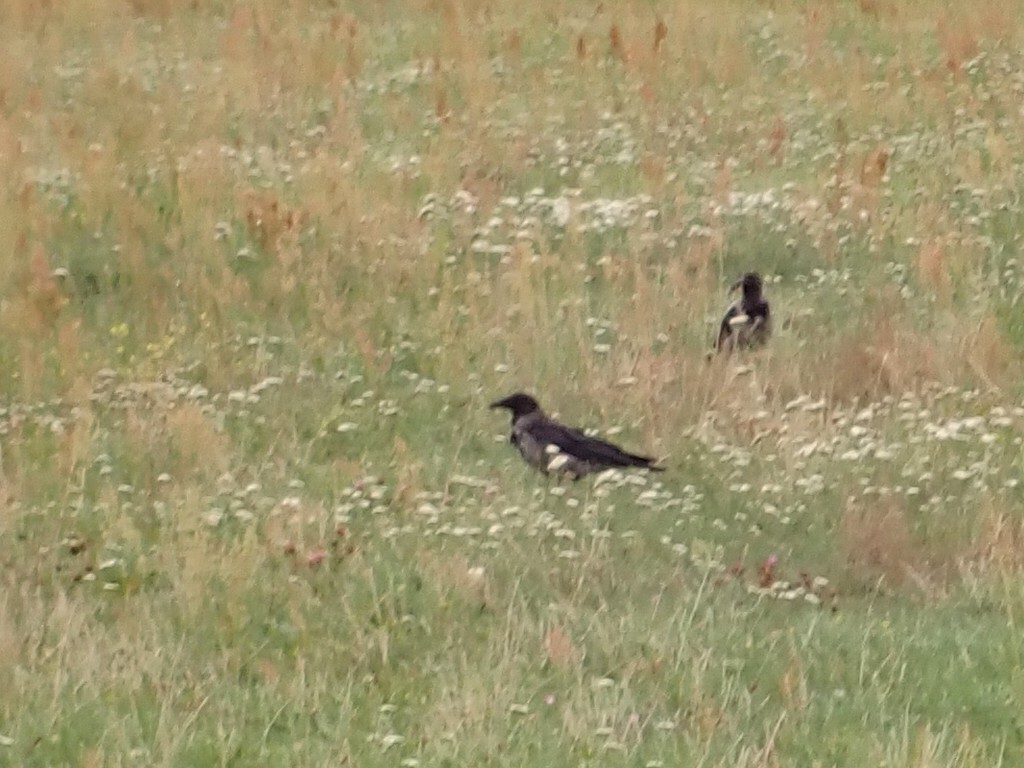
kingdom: Animalia
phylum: Chordata
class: Aves
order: Passeriformes
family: Corvidae
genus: Corvus
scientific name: Corvus cornix
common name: Hooded crow
